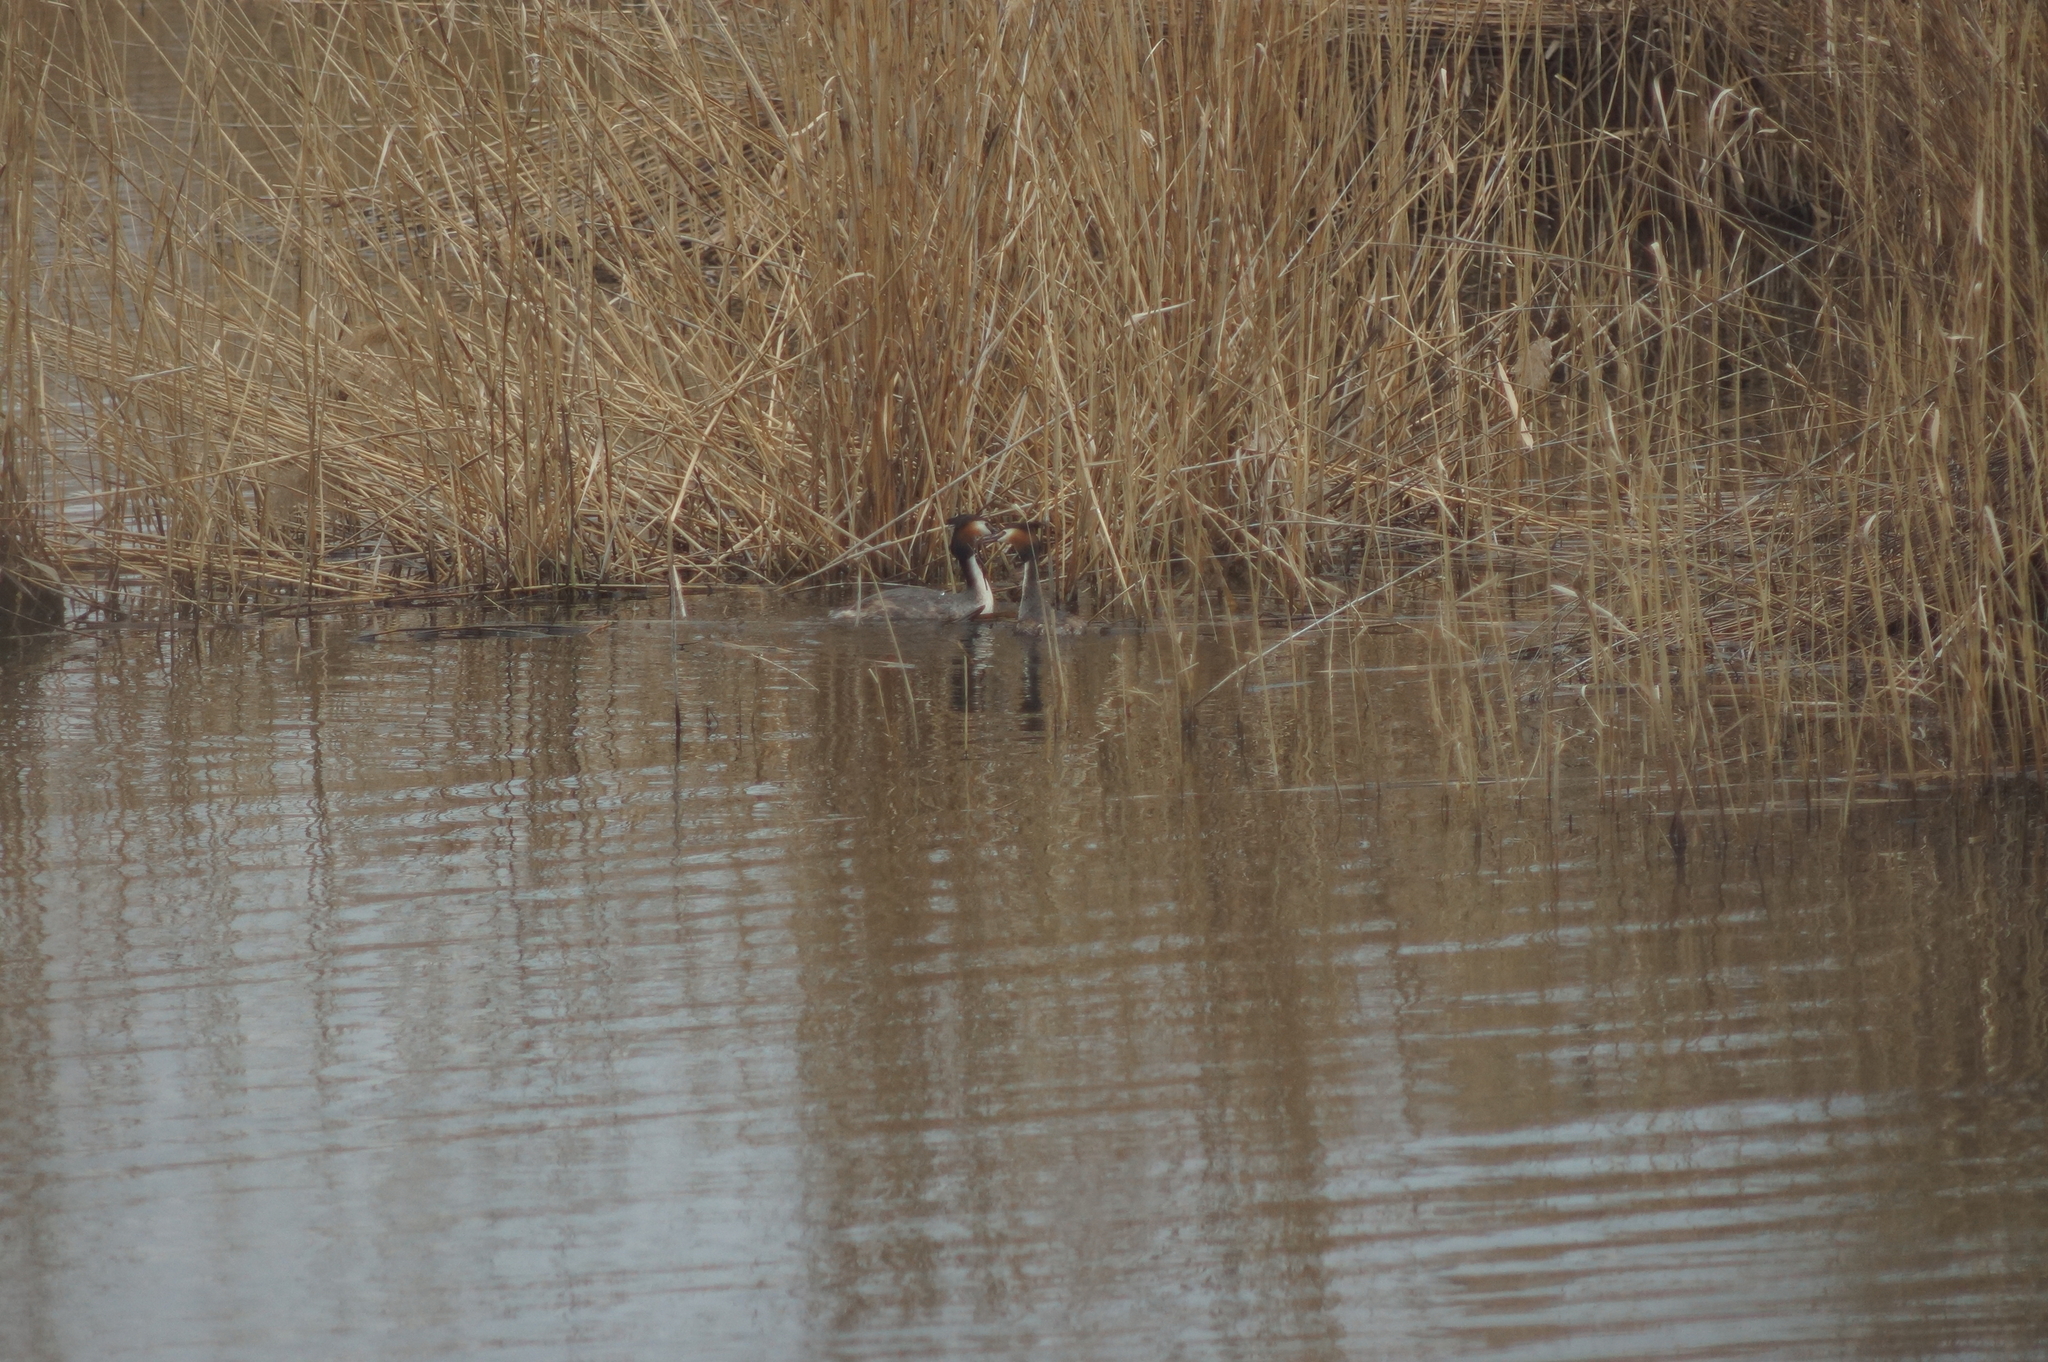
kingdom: Animalia
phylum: Chordata
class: Aves
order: Podicipediformes
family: Podicipedidae
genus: Podiceps
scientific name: Podiceps cristatus
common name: Great crested grebe
